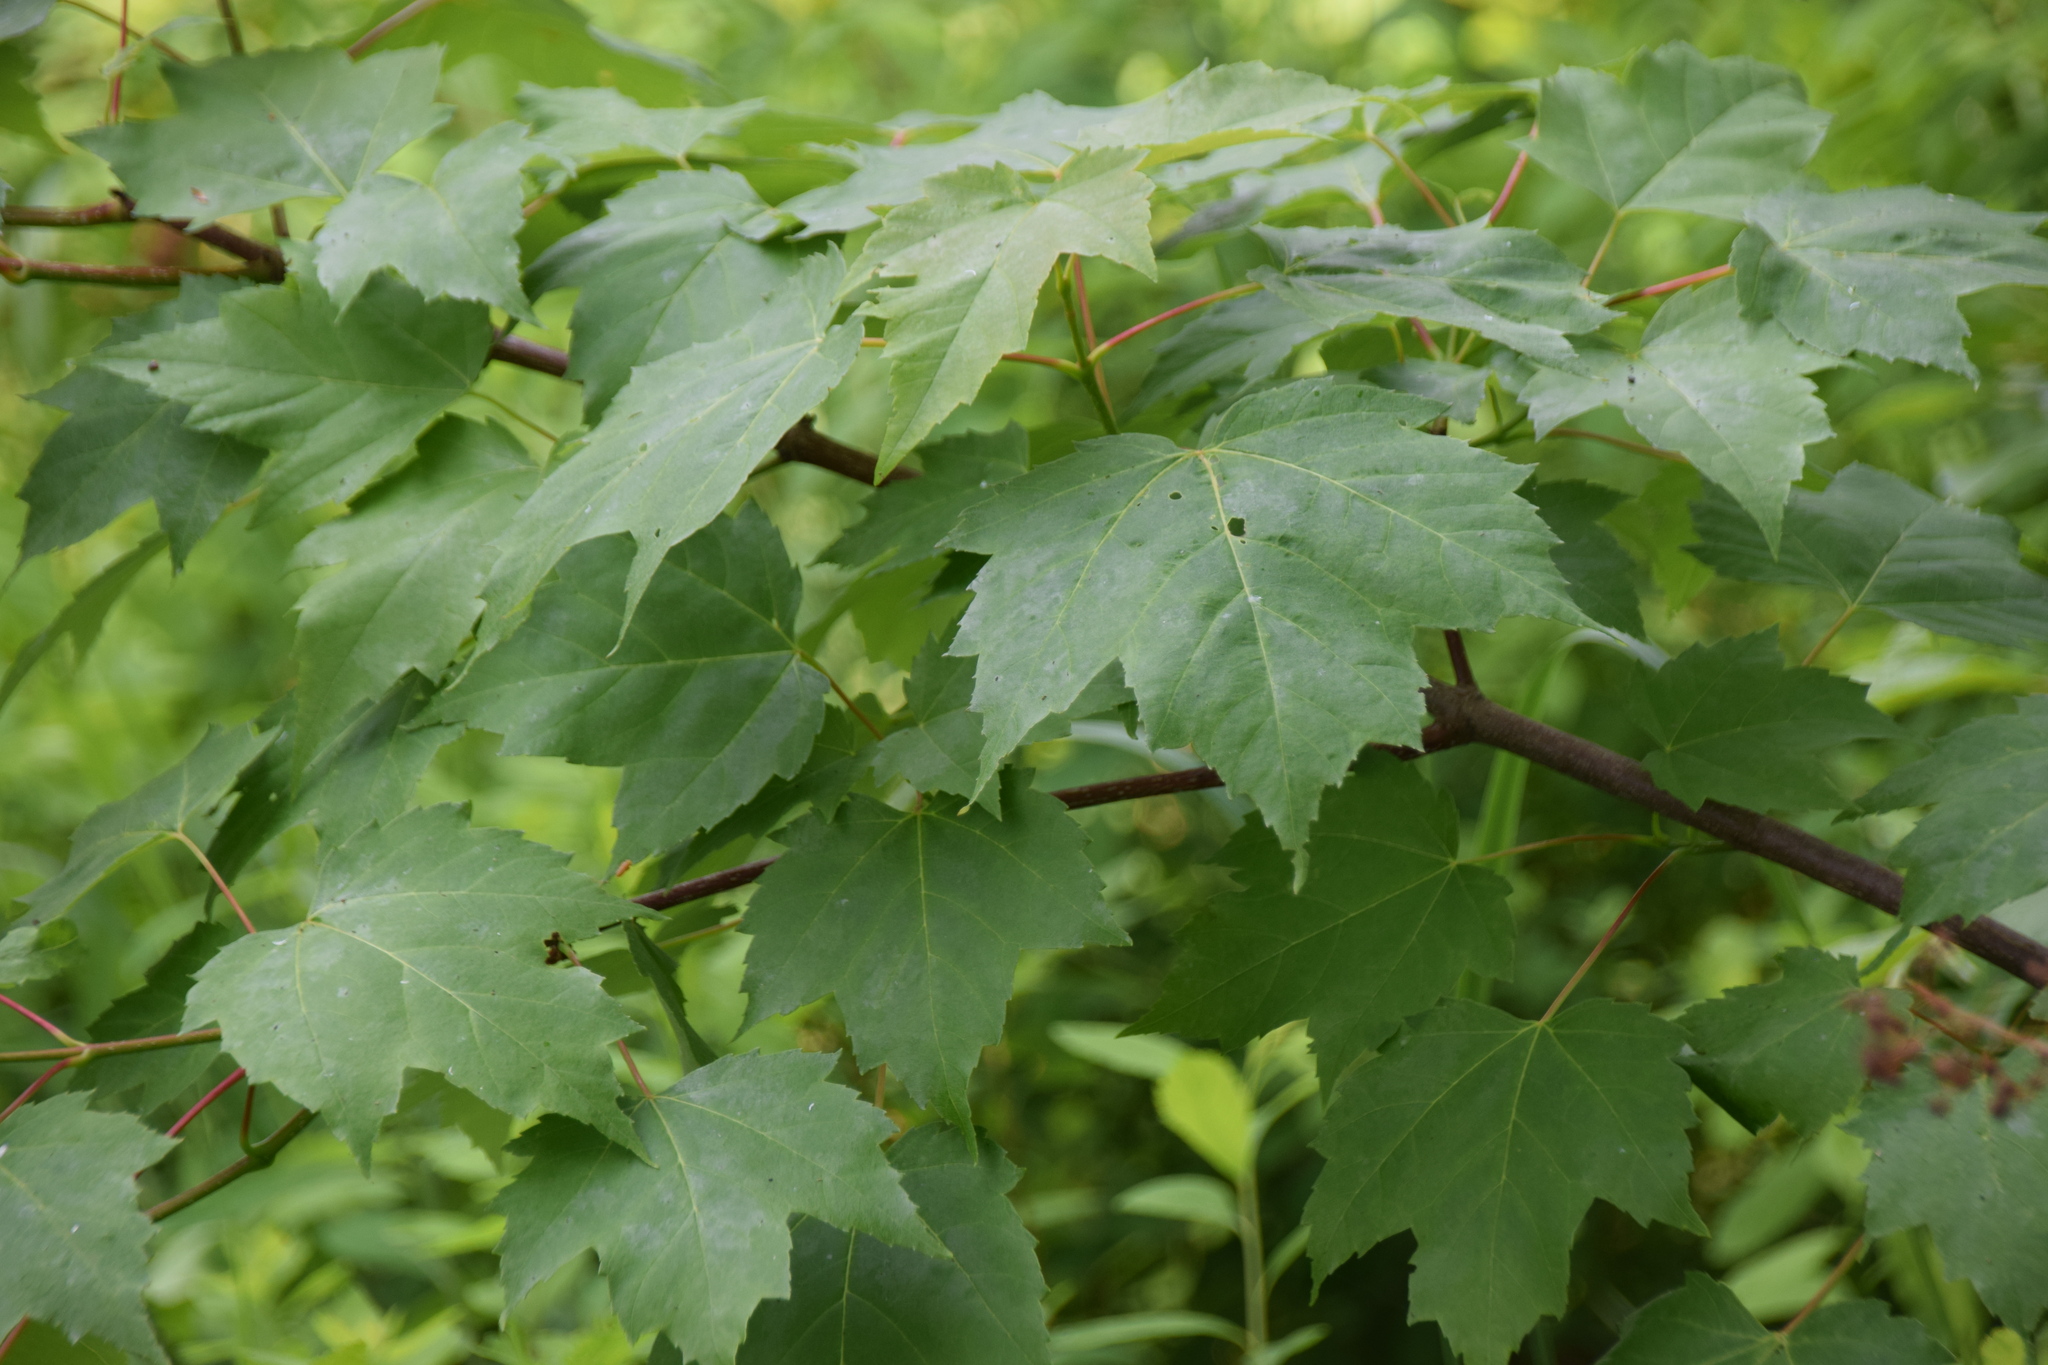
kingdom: Plantae
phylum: Tracheophyta
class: Magnoliopsida
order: Sapindales
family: Sapindaceae
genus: Acer
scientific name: Acer rubrum
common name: Red maple
